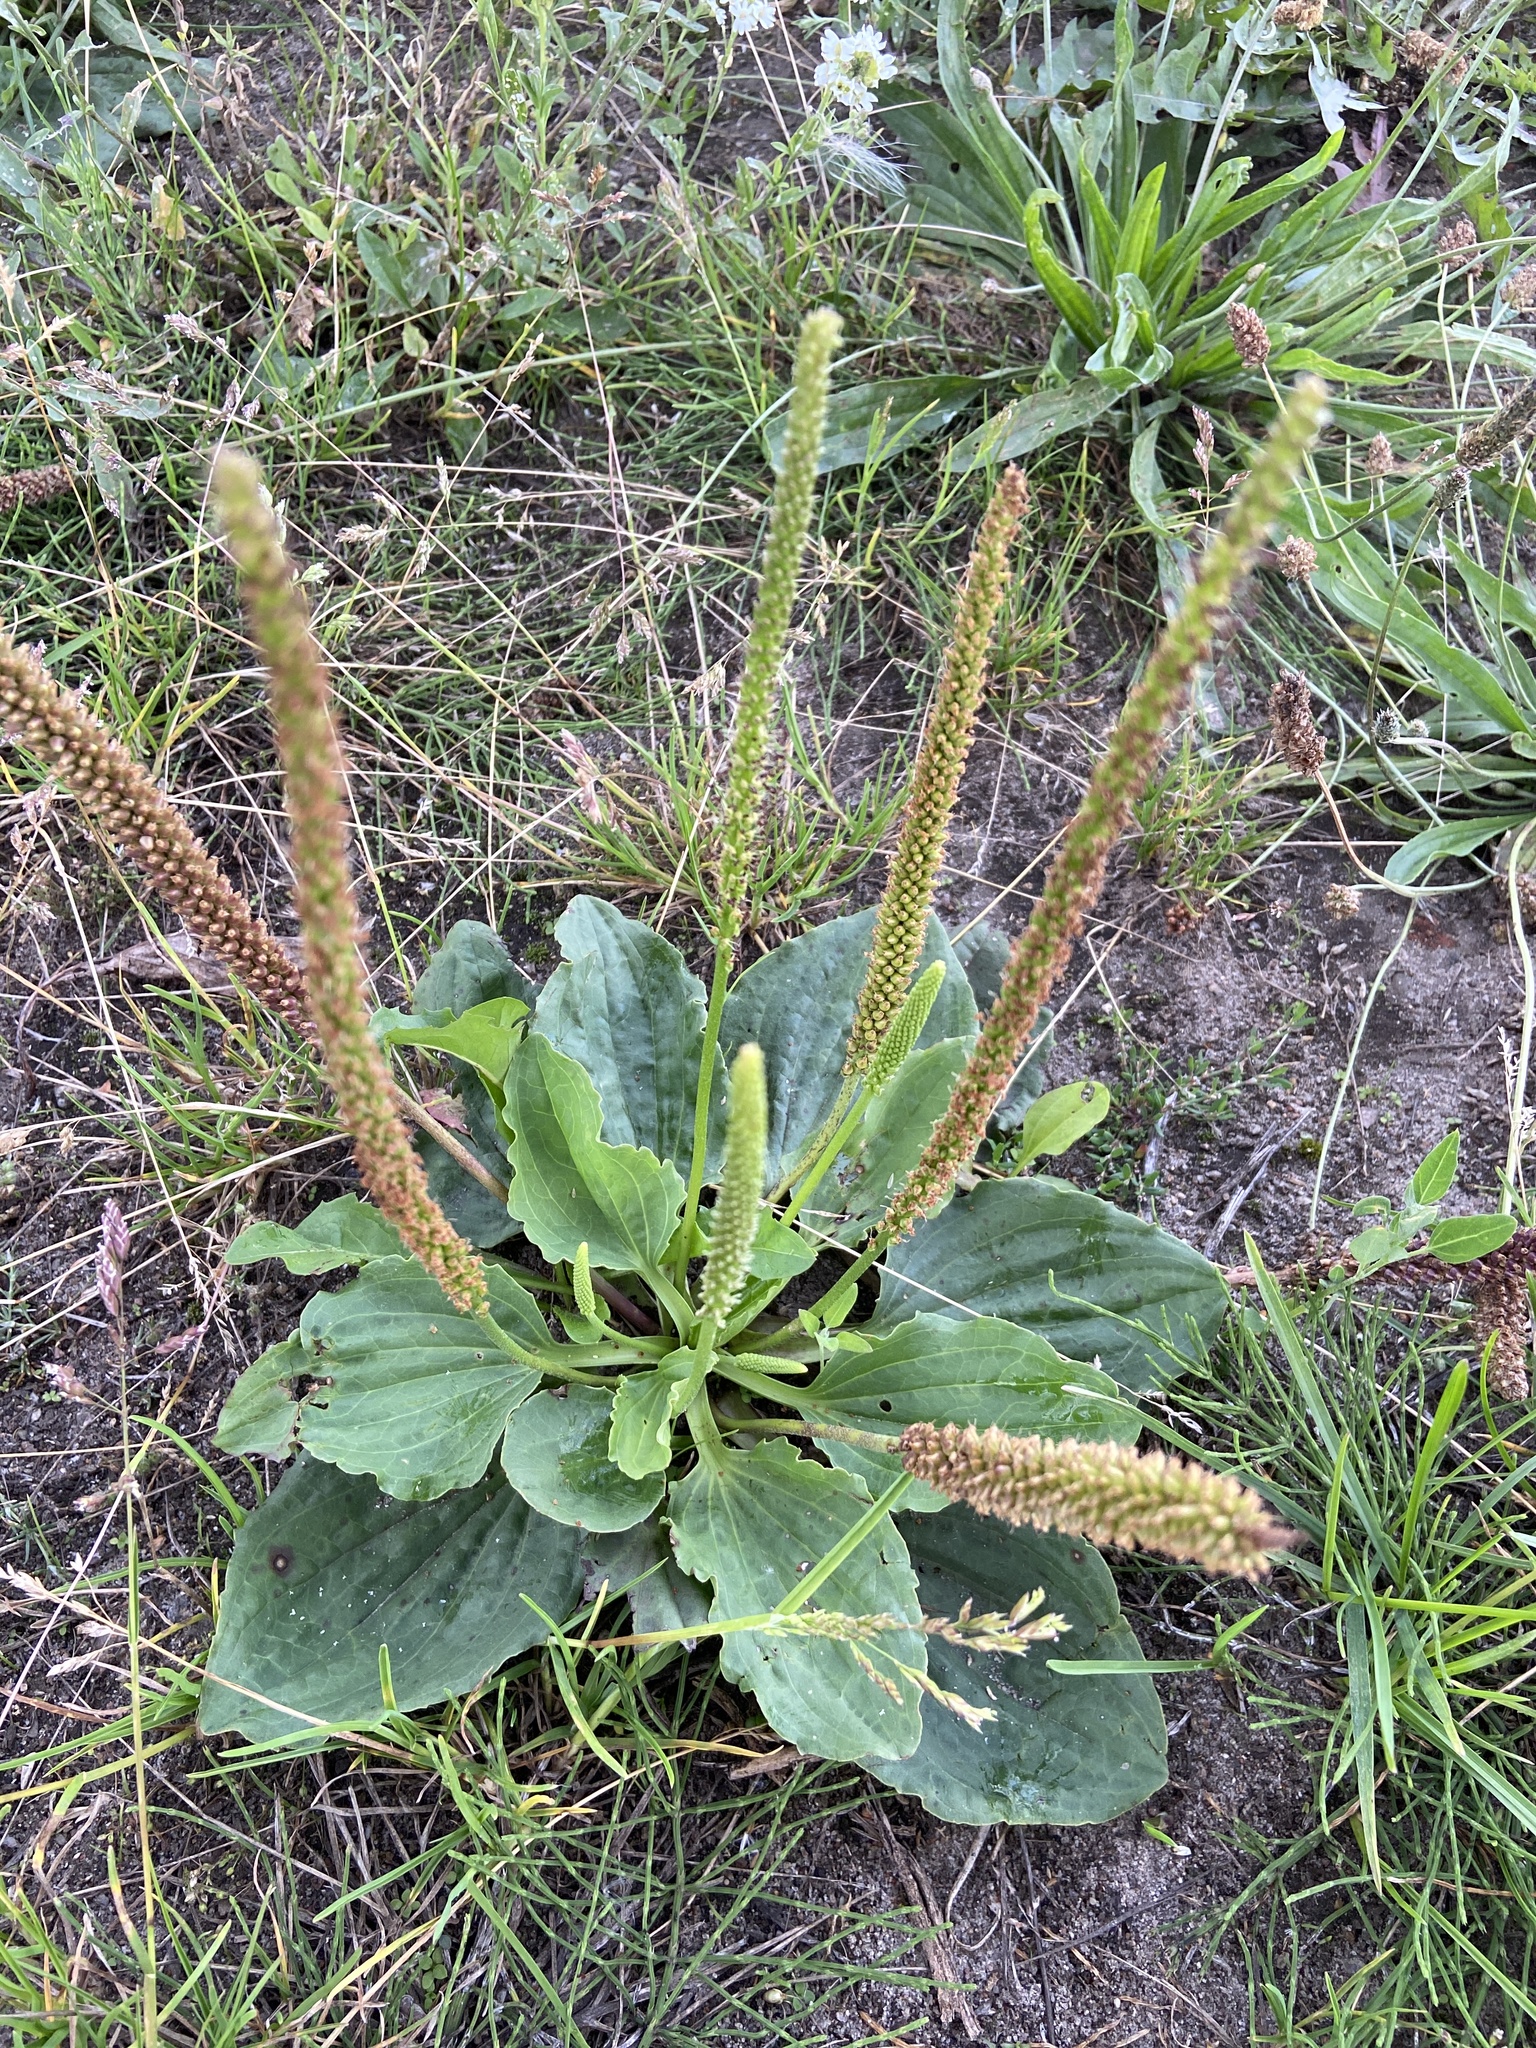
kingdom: Plantae
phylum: Tracheophyta
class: Magnoliopsida
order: Lamiales
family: Plantaginaceae
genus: Plantago
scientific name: Plantago major
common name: Common plantain
